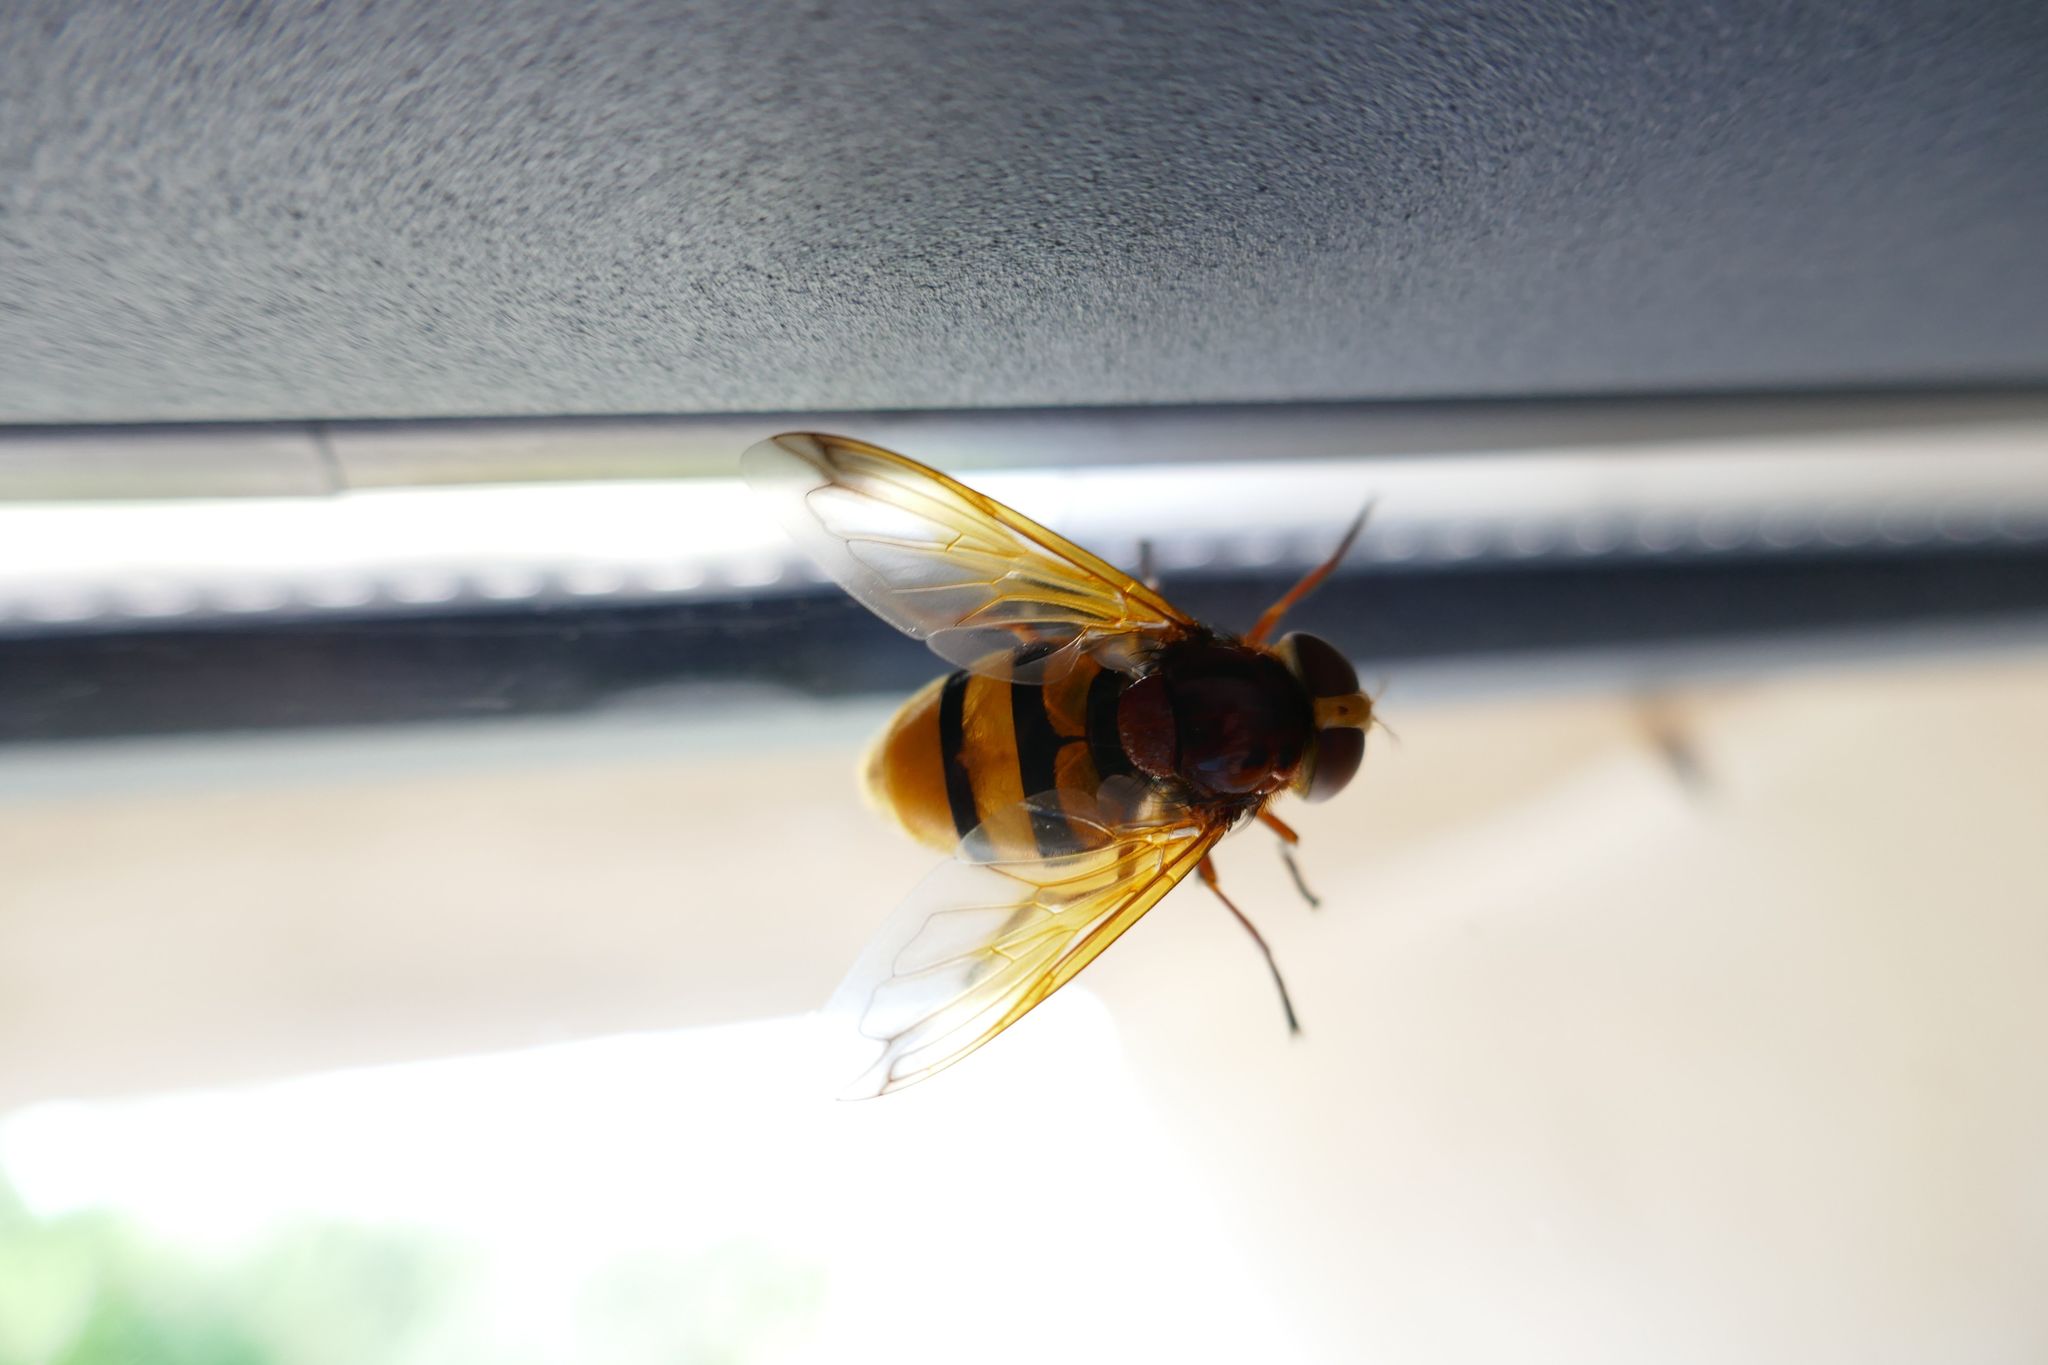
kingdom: Animalia
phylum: Arthropoda
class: Insecta
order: Diptera
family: Syrphidae
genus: Volucella
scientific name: Volucella zonaria
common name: Hornet hoverfly
